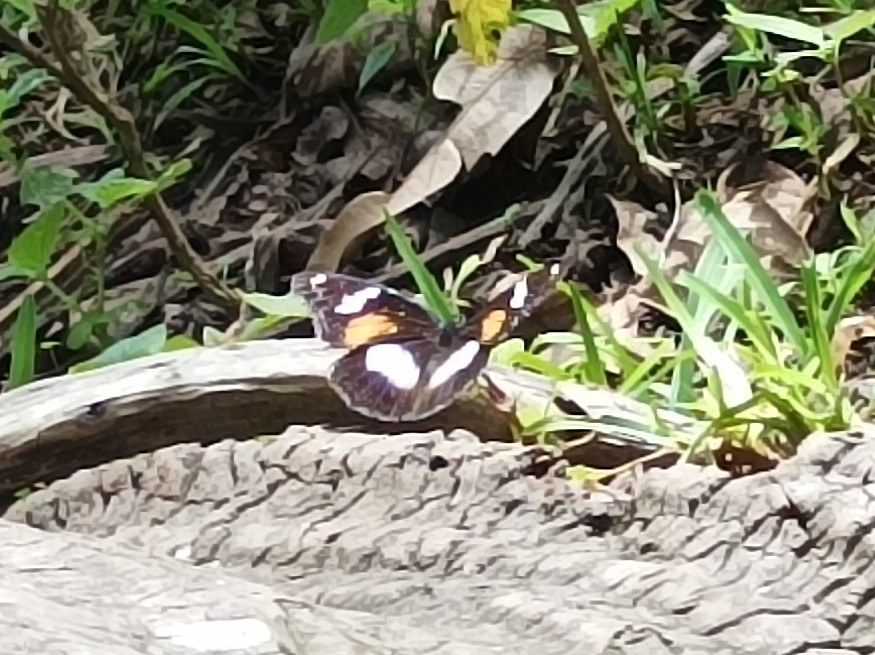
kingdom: Animalia
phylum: Arthropoda
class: Insecta
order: Lepidoptera
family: Nymphalidae
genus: Hypolimnas
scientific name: Hypolimnas bolina
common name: Great eggfly
